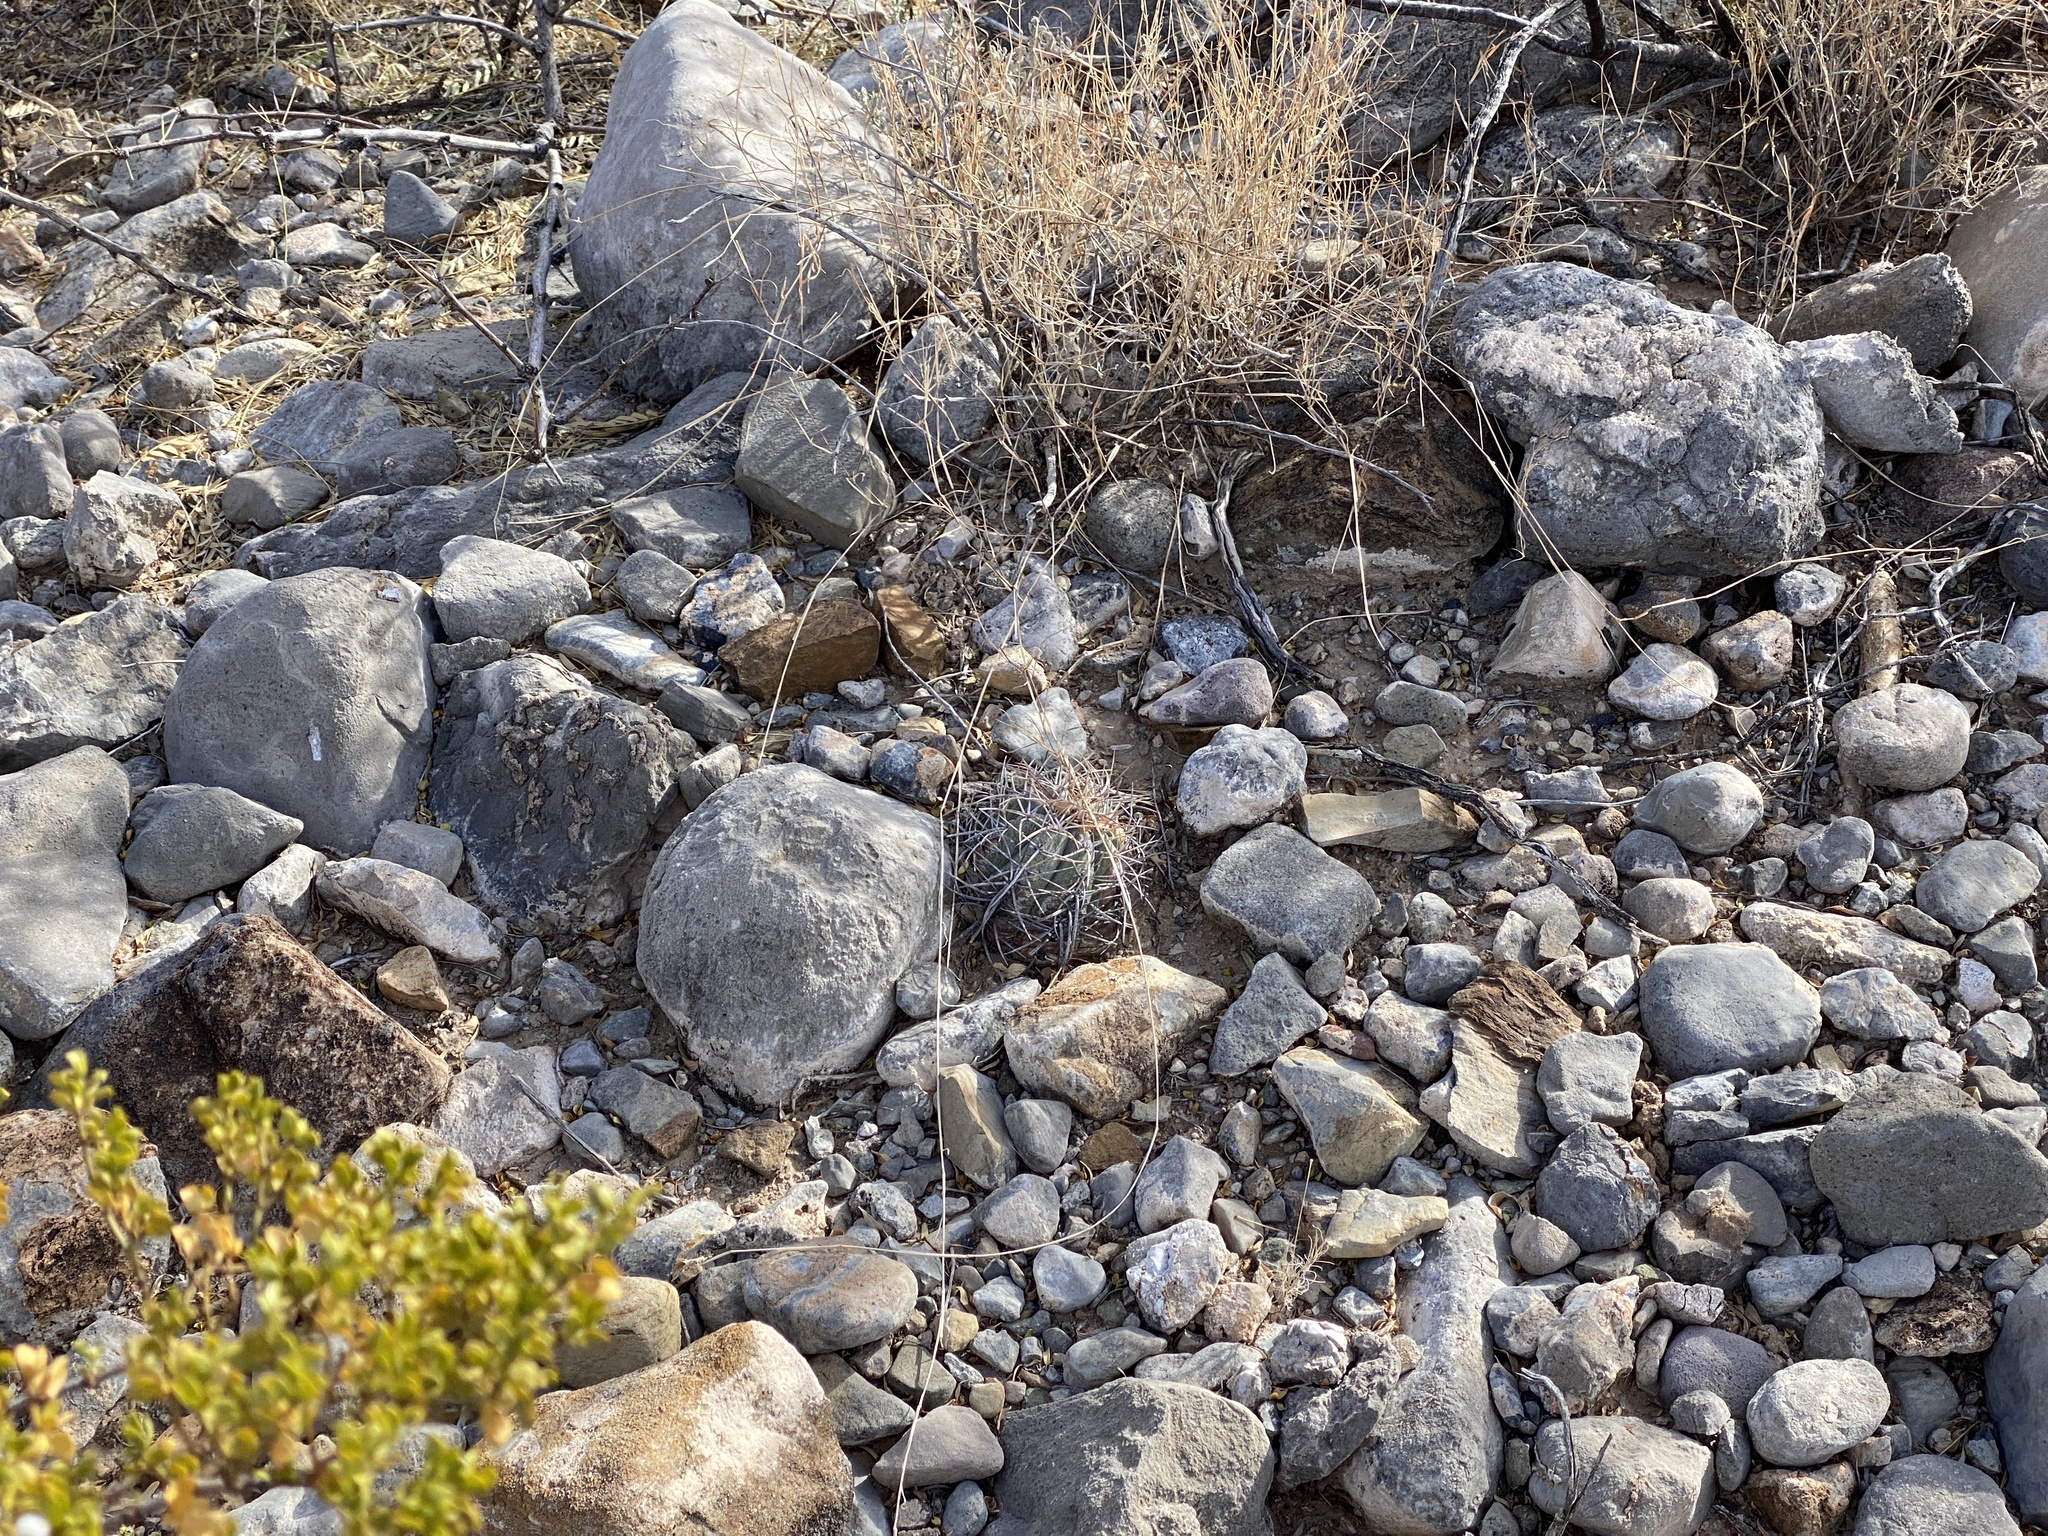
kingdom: Plantae
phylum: Tracheophyta
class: Magnoliopsida
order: Caryophyllales
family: Cactaceae
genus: Echinocactus
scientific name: Echinocactus horizonthalonius
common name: Devilshead
